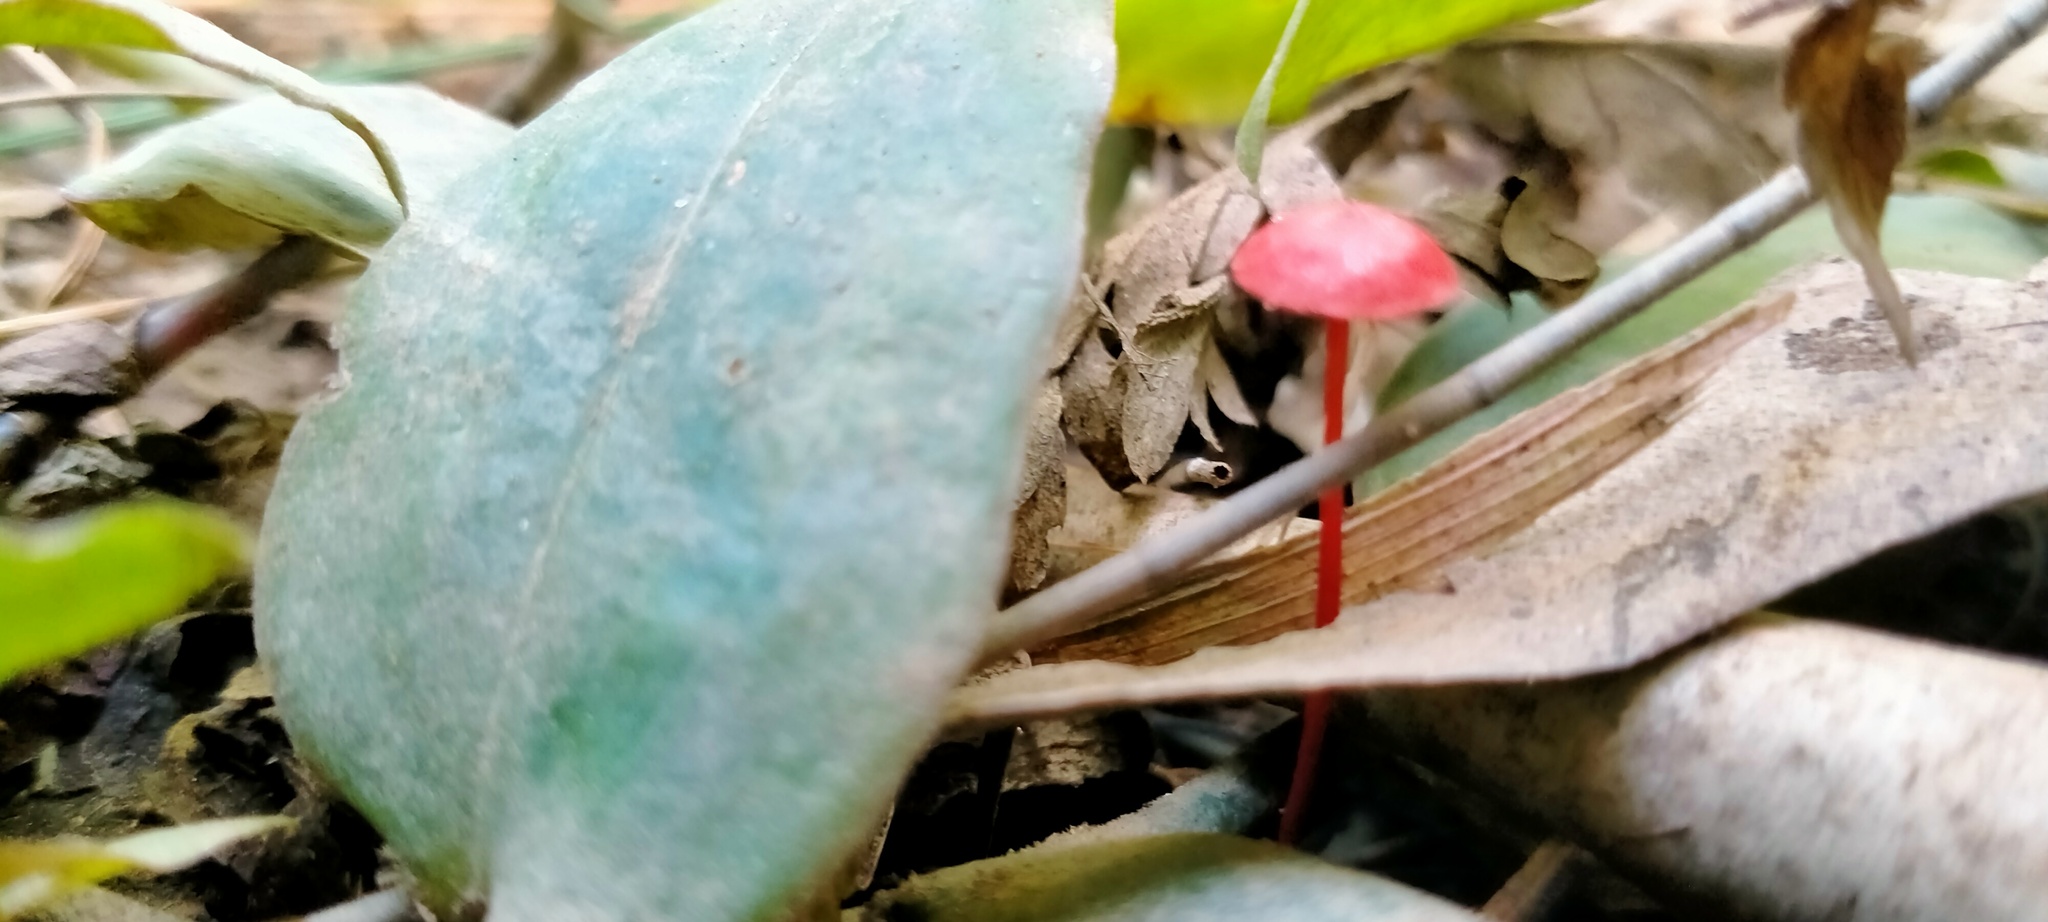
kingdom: Fungi
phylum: Basidiomycota
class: Agaricomycetes
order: Agaricales
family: Mycenaceae
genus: Cruentomycena
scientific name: Cruentomycena viscidocruenta
